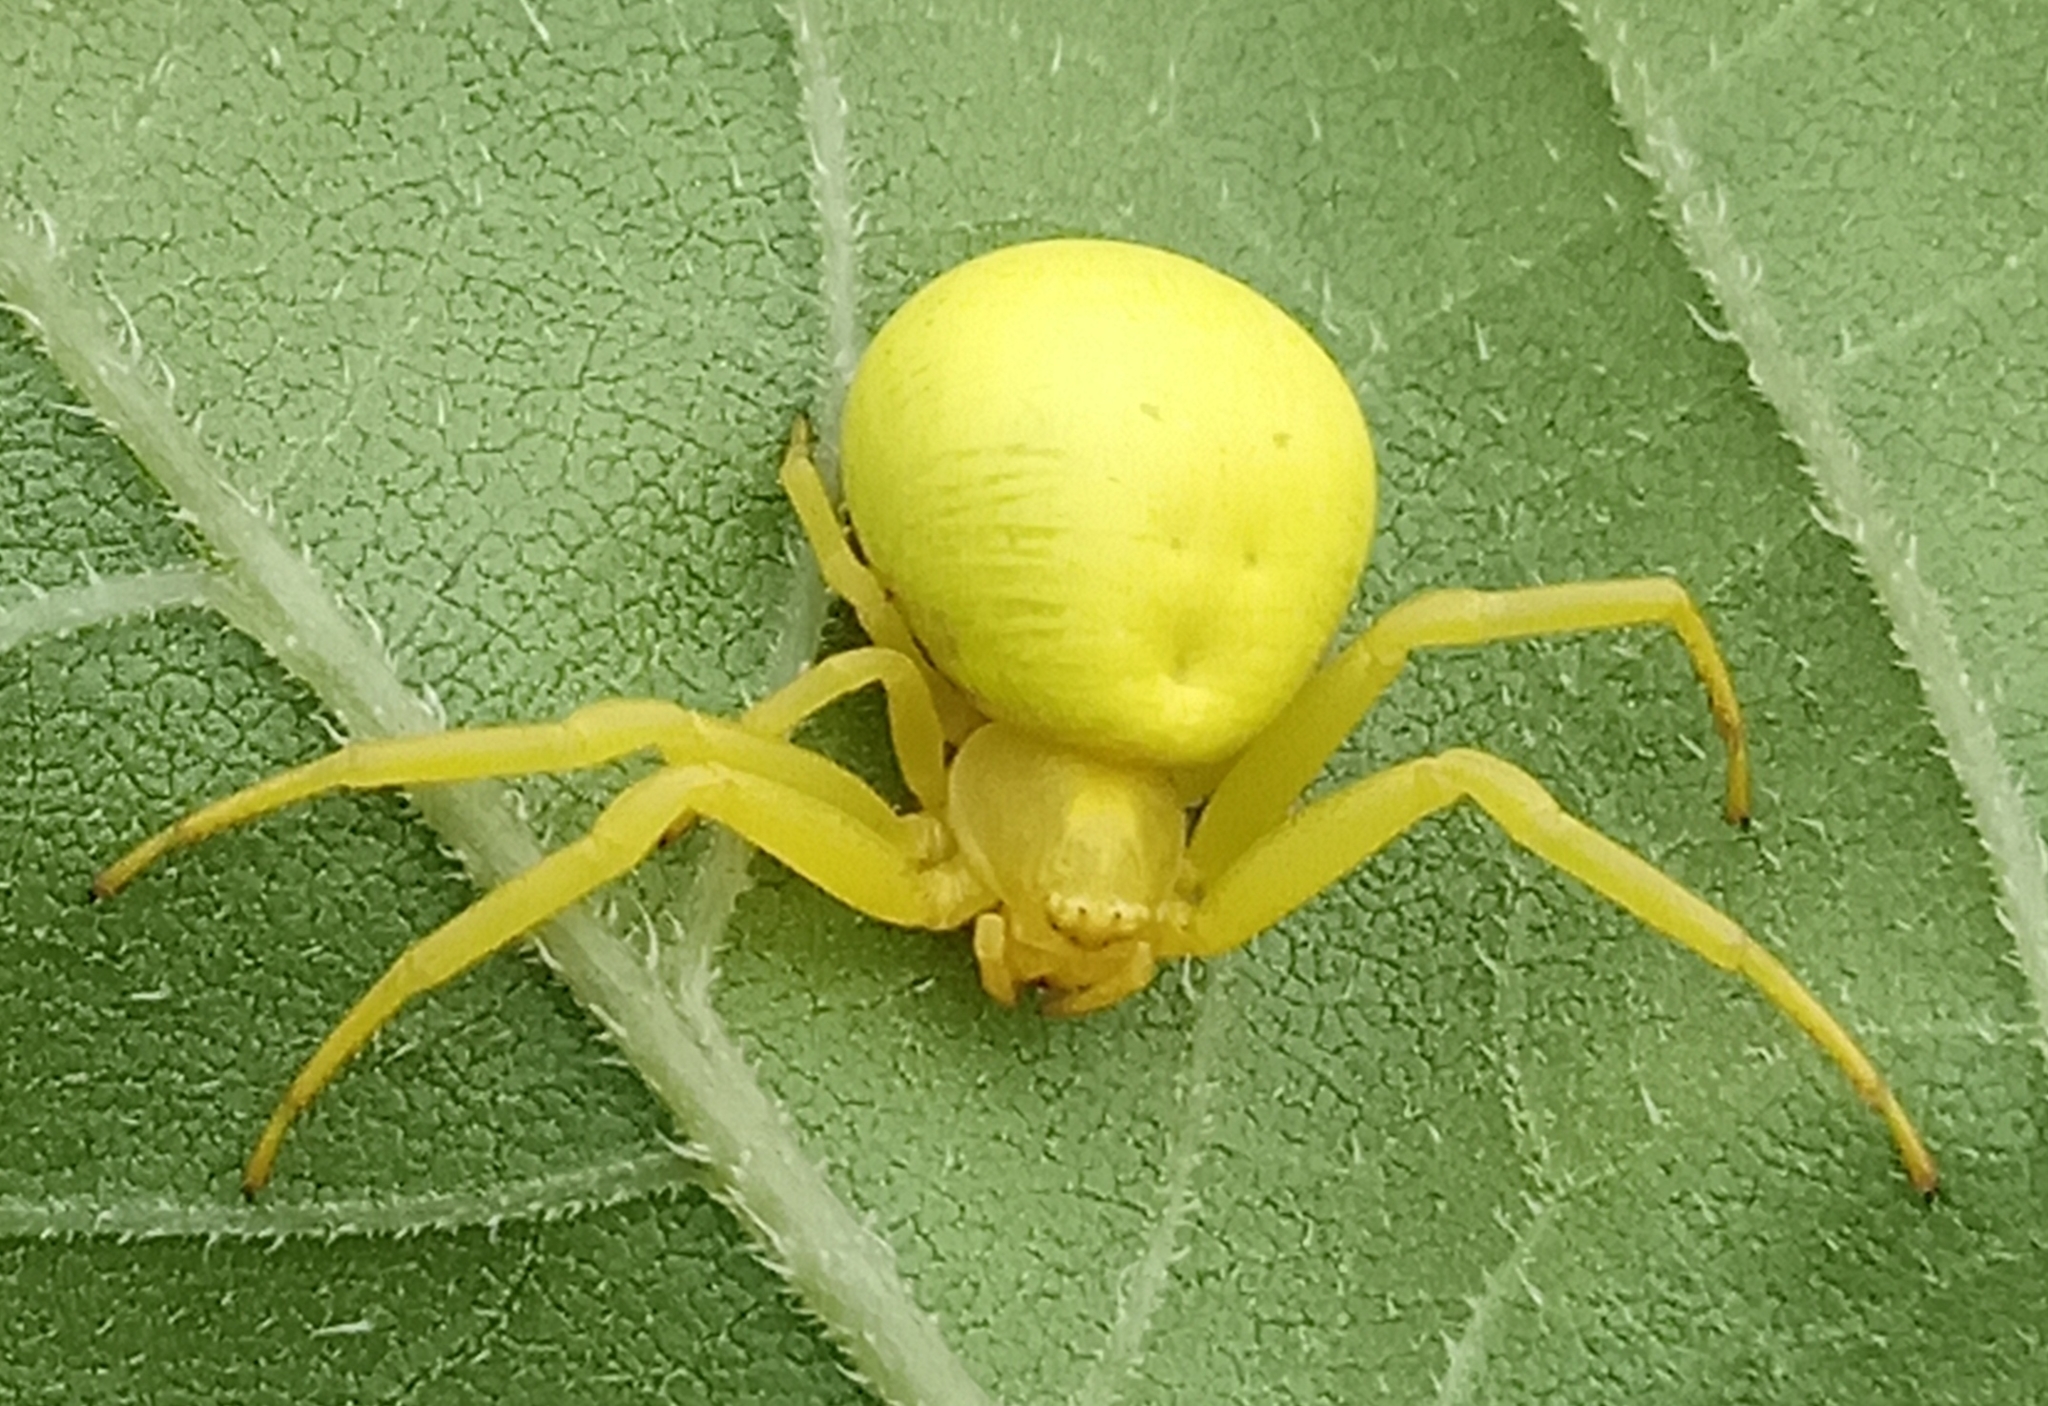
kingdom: Animalia
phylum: Arthropoda
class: Arachnida
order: Araneae
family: Thomisidae
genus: Misumena
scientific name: Misumena vatia
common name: Goldenrod crab spider
